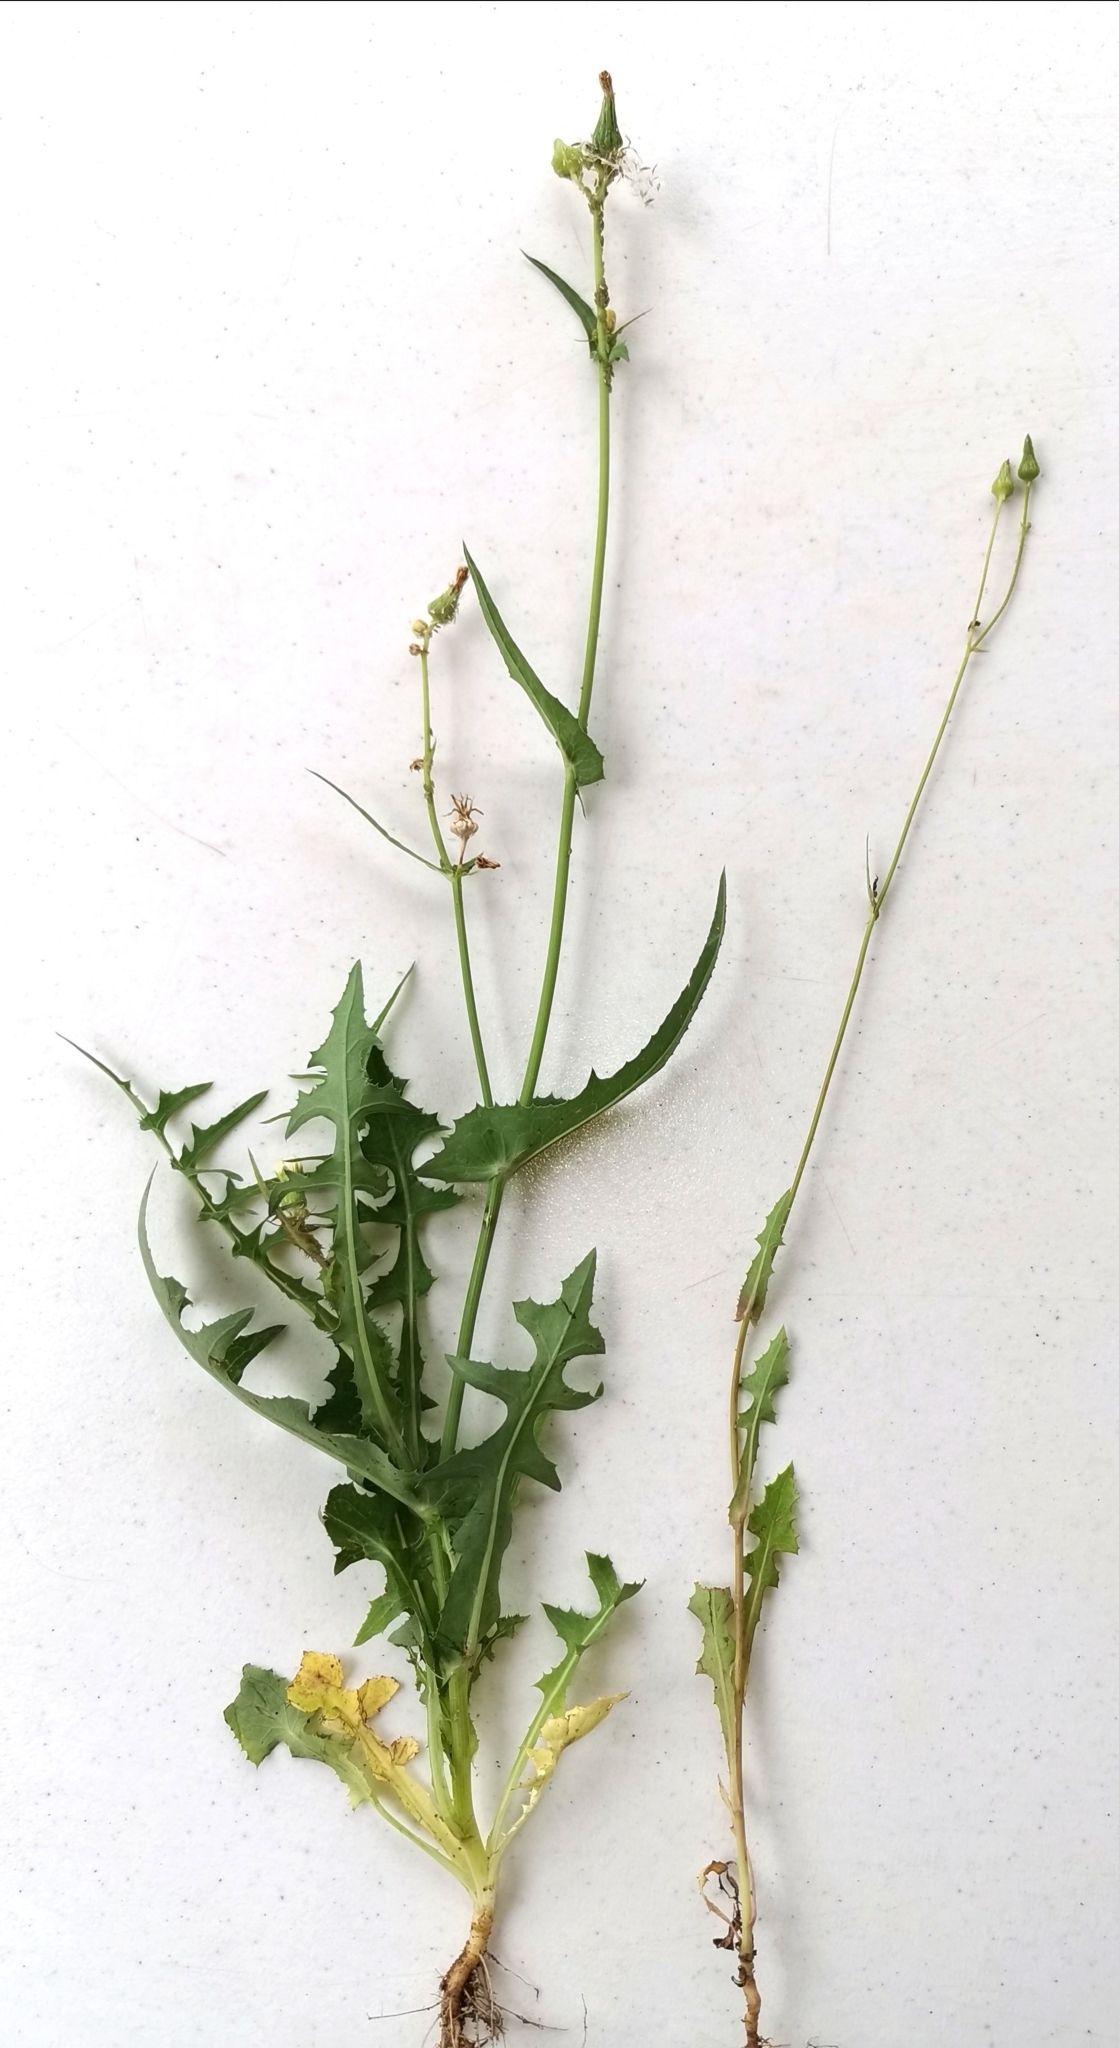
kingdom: Plantae
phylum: Tracheophyta
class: Magnoliopsida
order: Asterales
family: Asteraceae
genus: Sonchus
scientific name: Sonchus oleraceus
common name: Common sowthistle
